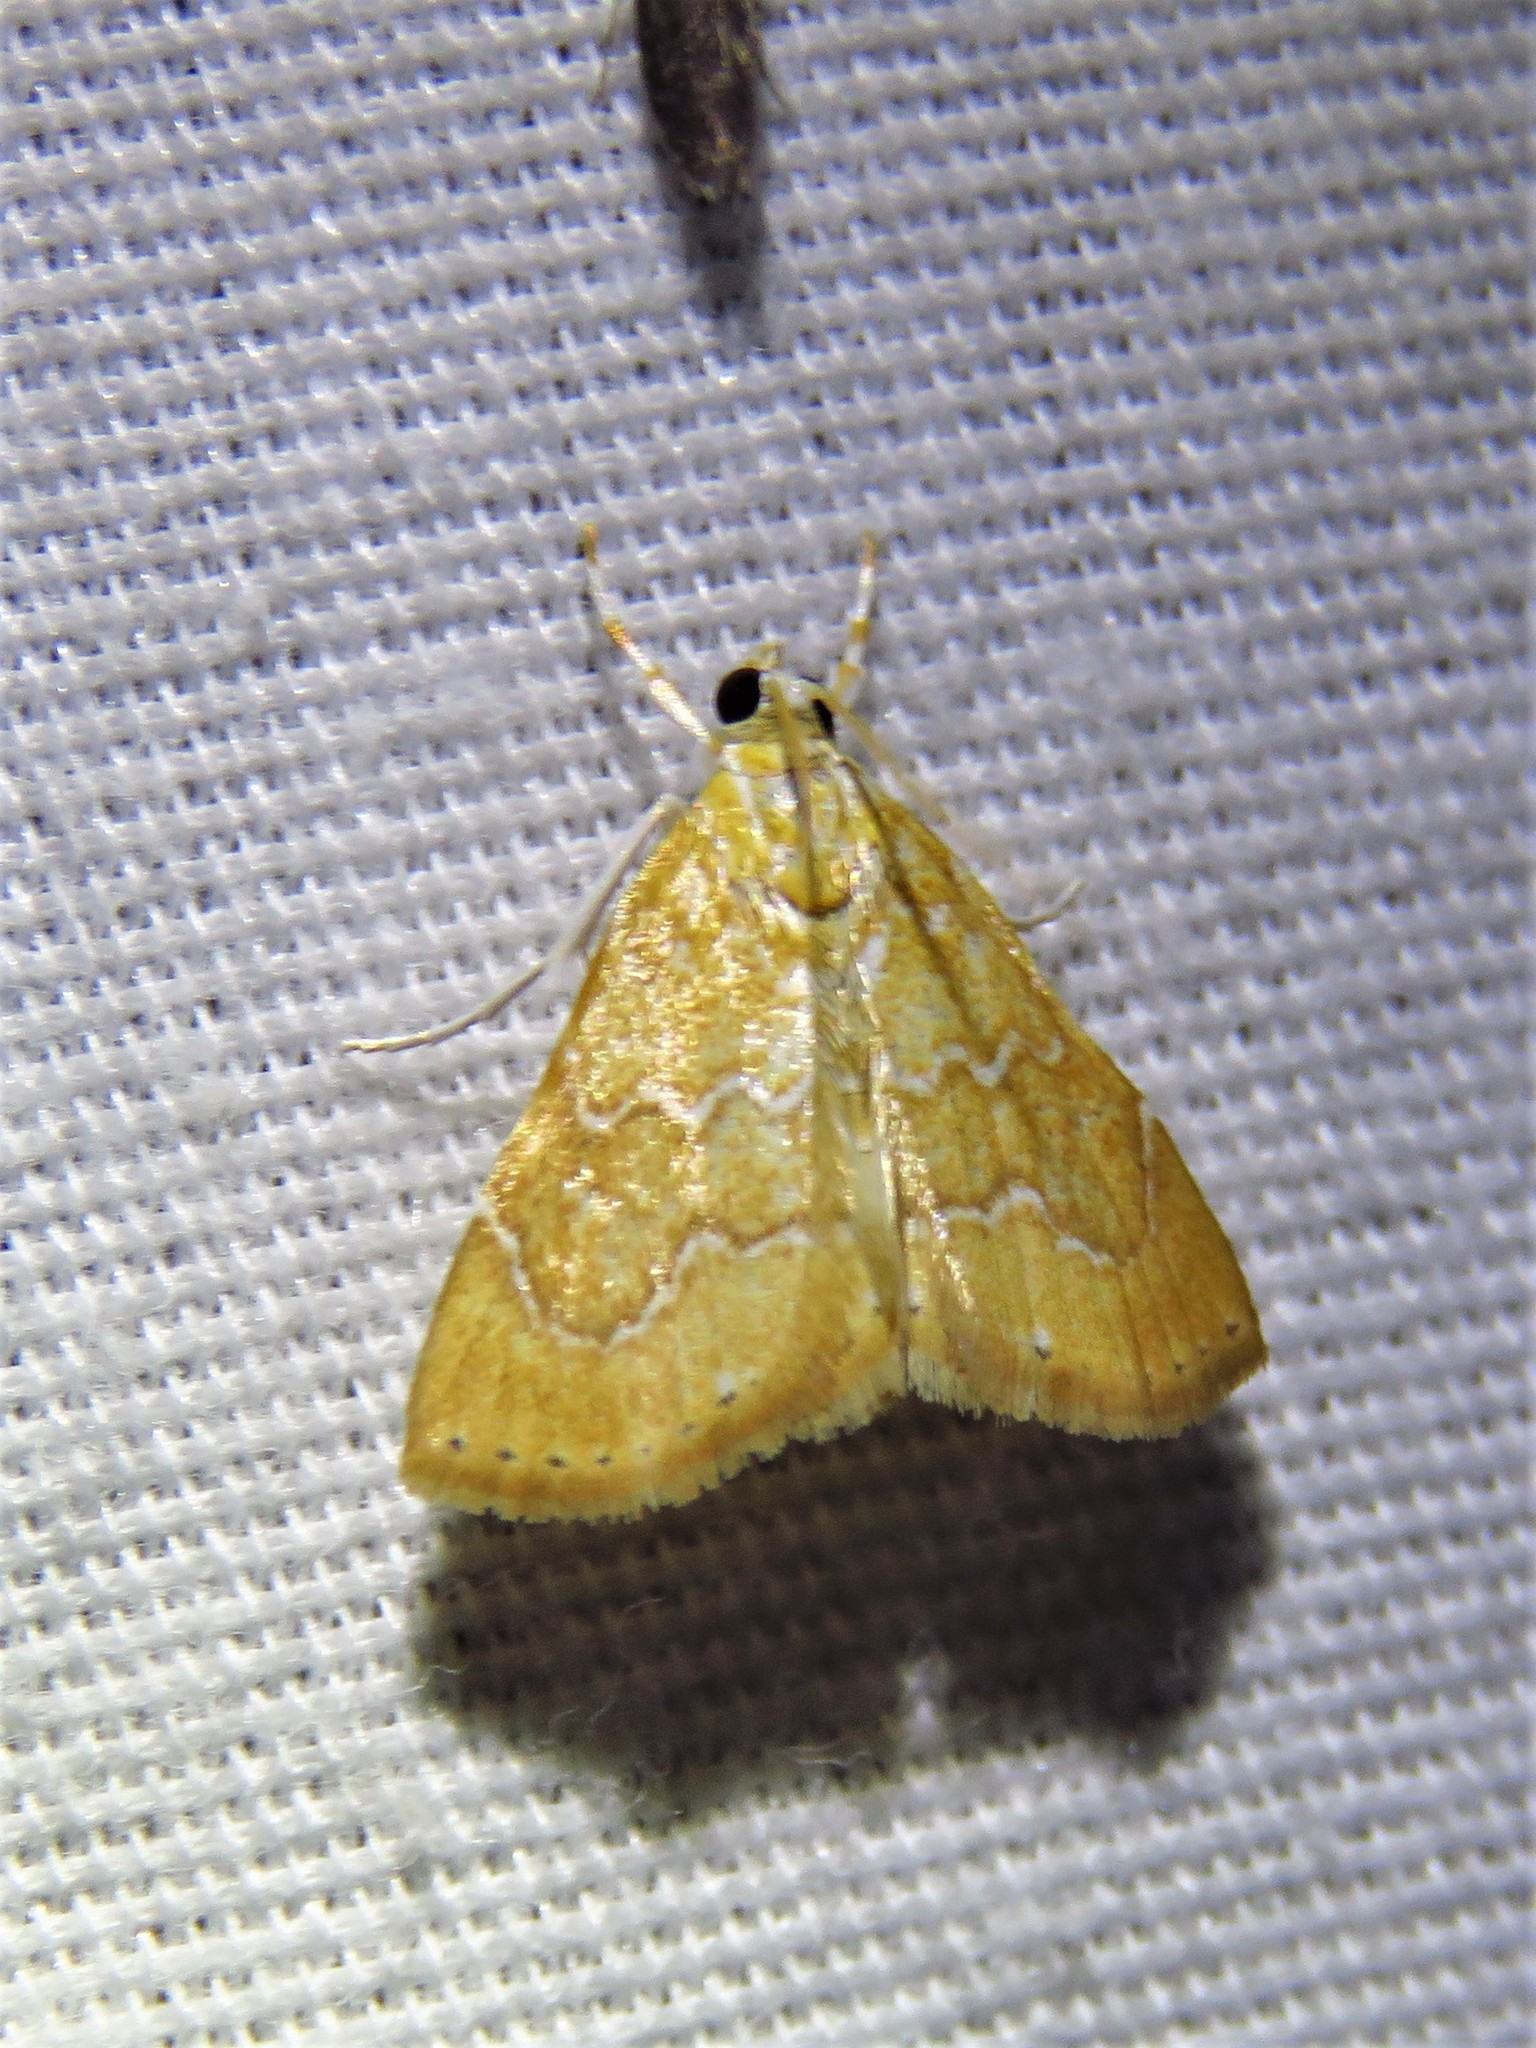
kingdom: Animalia
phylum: Arthropoda
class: Insecta
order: Lepidoptera
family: Crambidae
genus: Glaphyria
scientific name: Glaphyria sesquistrialis
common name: White-roped glaphyria
